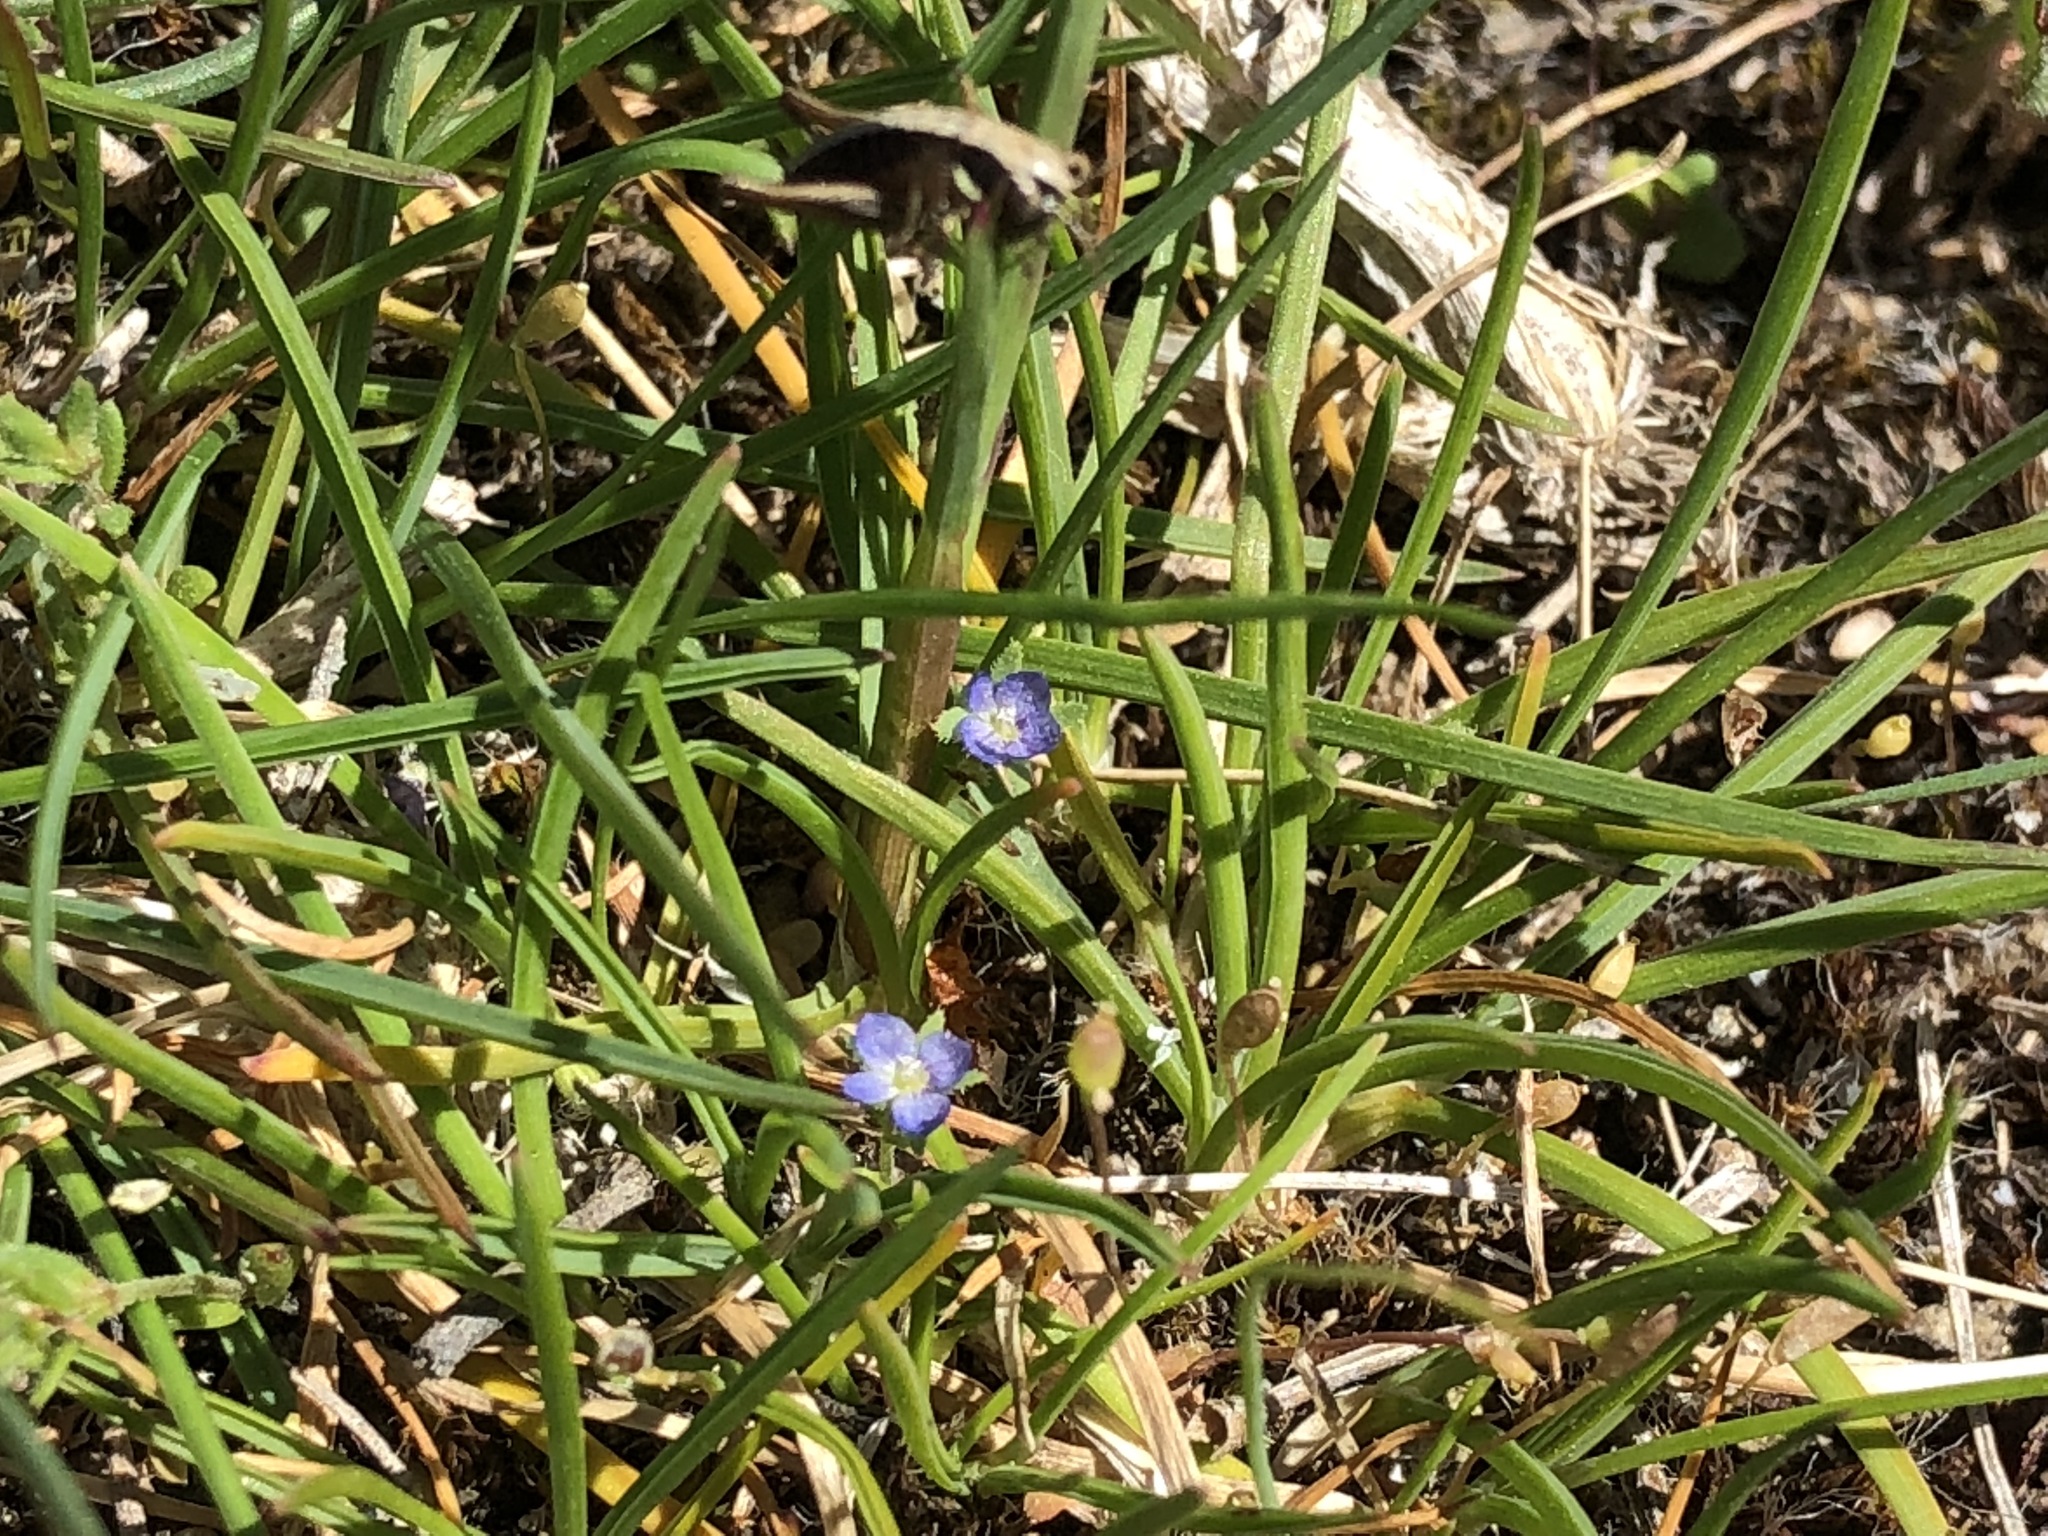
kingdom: Plantae
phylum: Tracheophyta
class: Magnoliopsida
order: Lamiales
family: Plantaginaceae
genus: Veronica
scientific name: Veronica verna
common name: Spring speedwell
